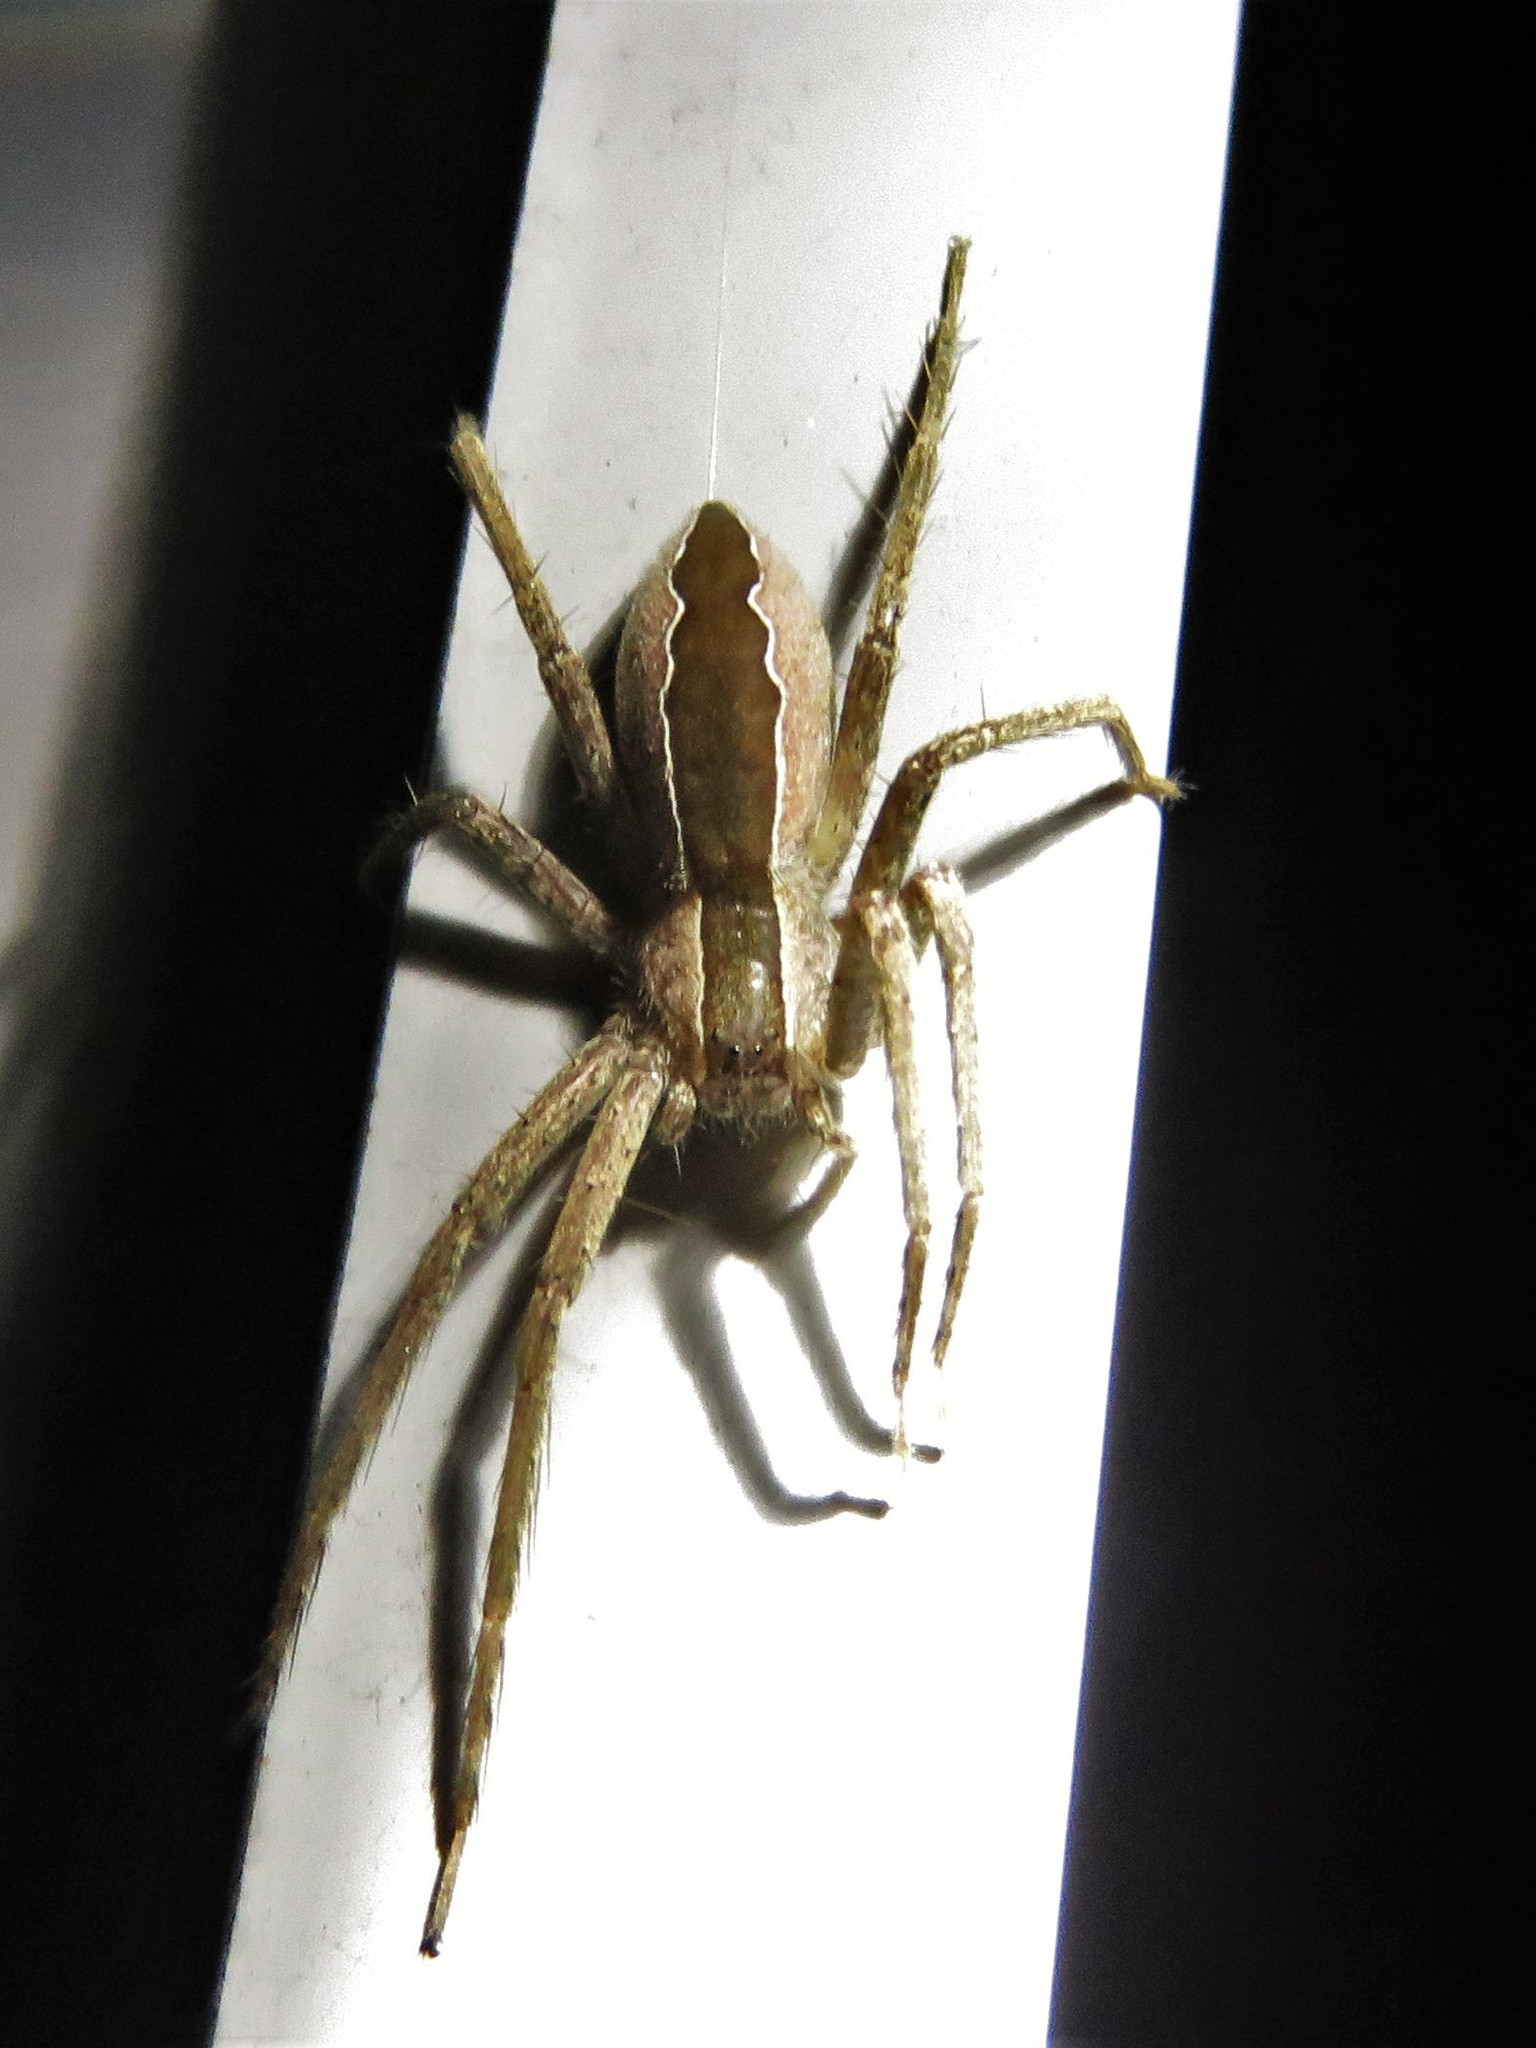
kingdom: Animalia
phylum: Arthropoda
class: Arachnida
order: Araneae
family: Pisauridae
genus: Pisaurina
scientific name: Pisaurina mira
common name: American nursery web spider
